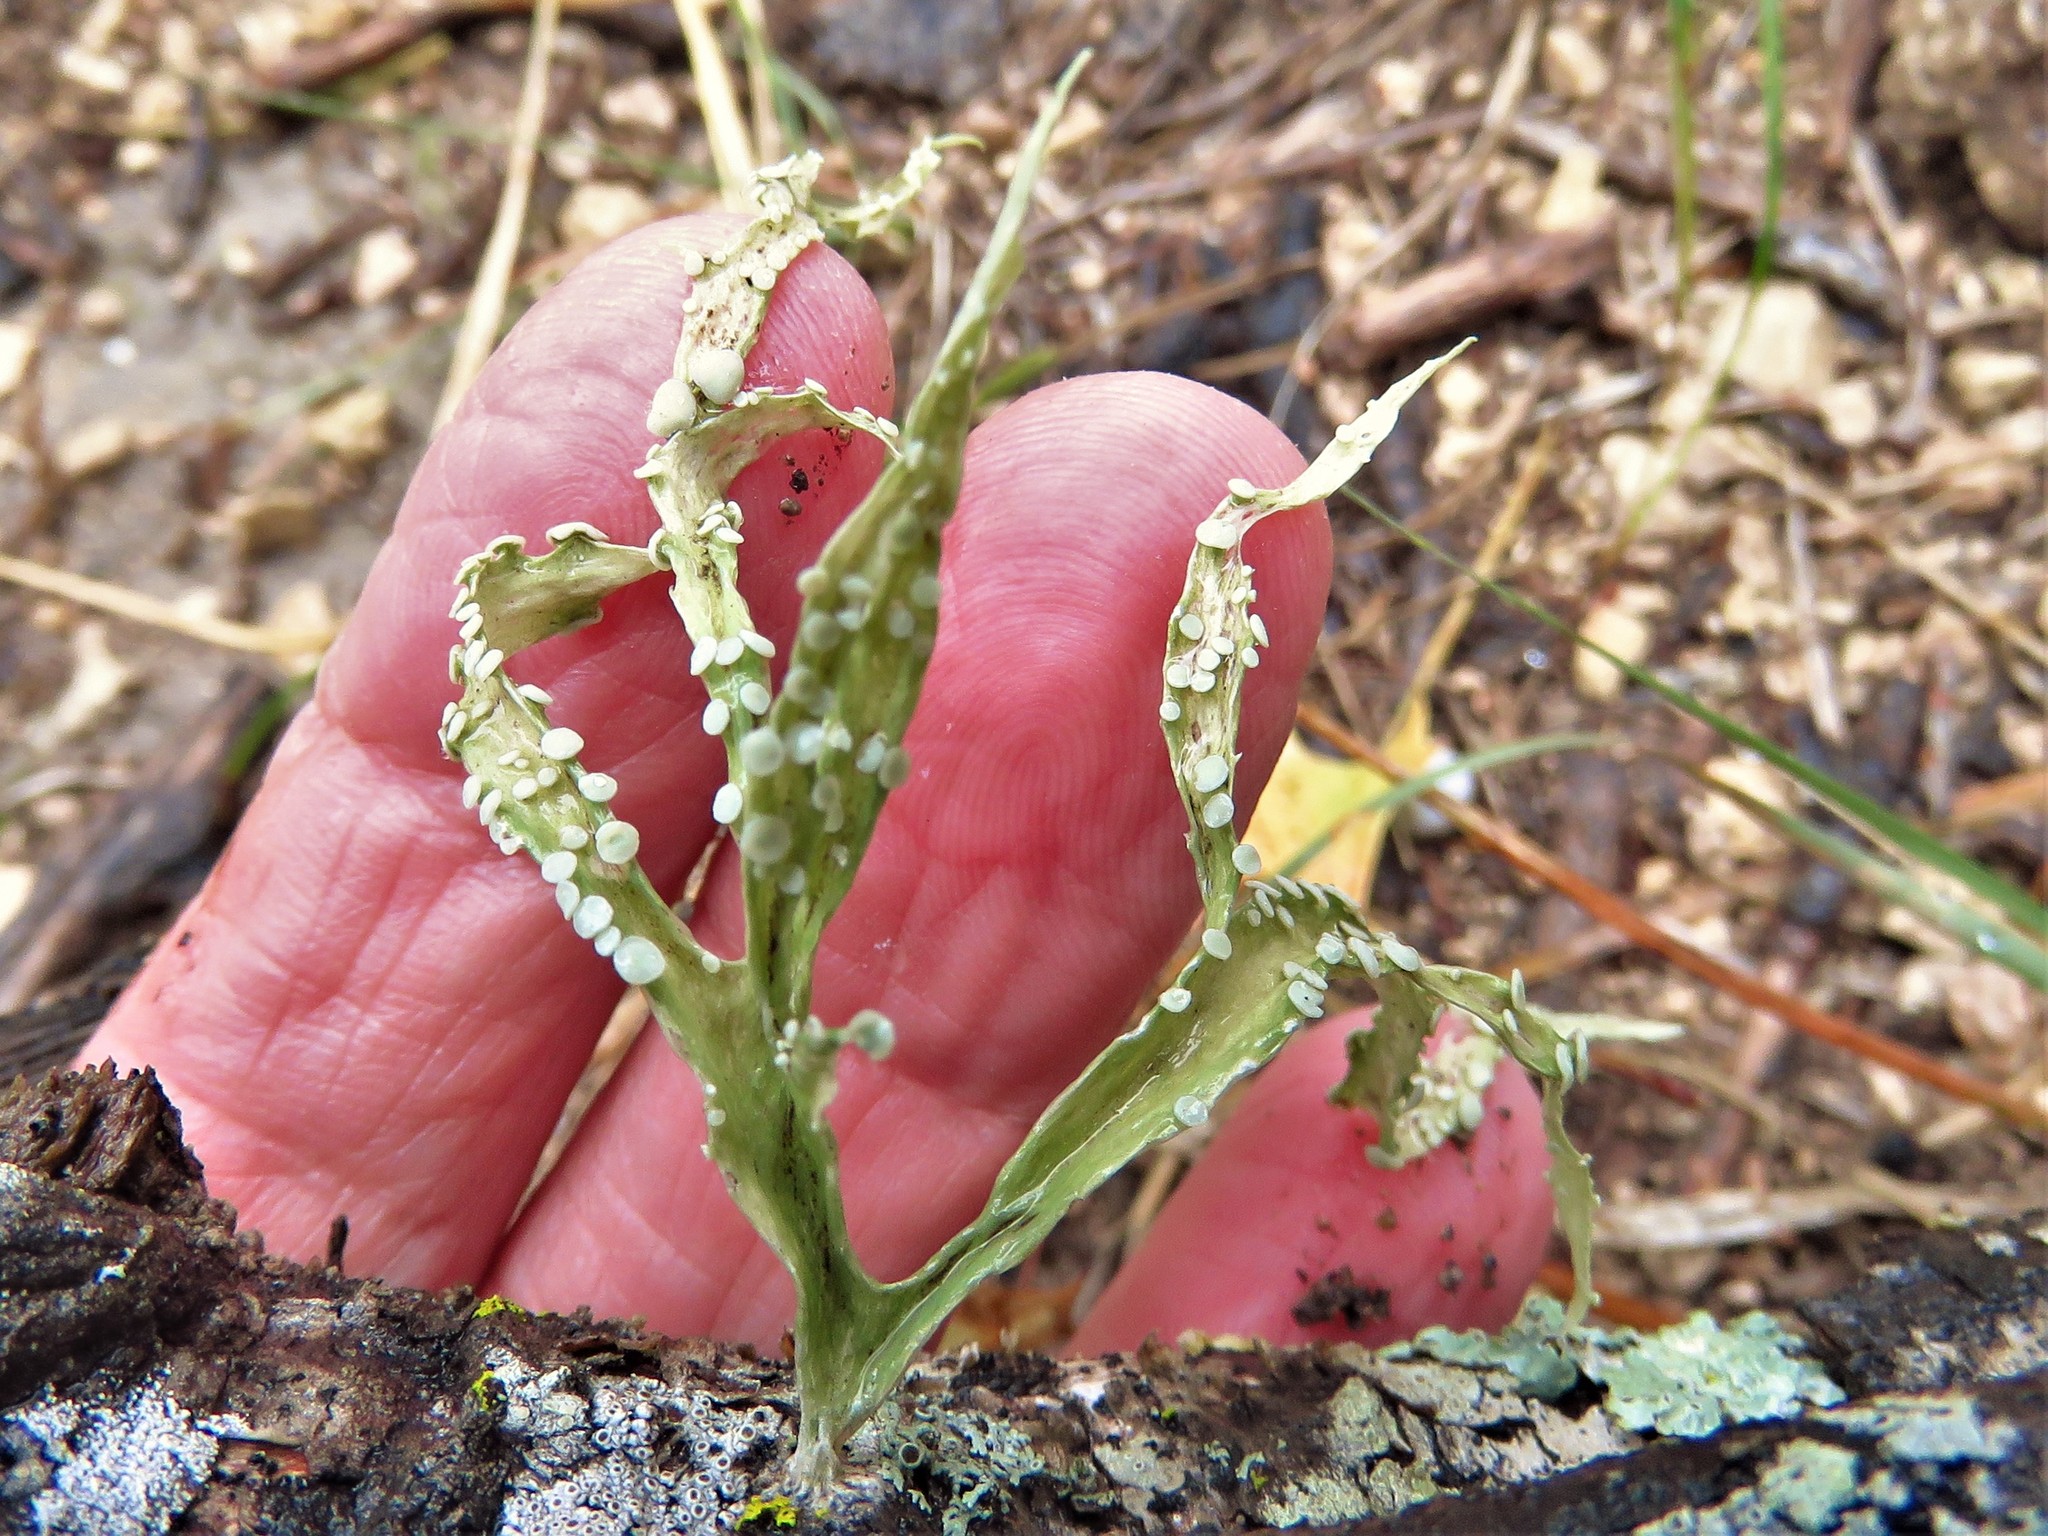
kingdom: Fungi
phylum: Ascomycota
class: Lecanoromycetes
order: Lecanorales
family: Ramalinaceae
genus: Ramalina
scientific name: Ramalina celastri
